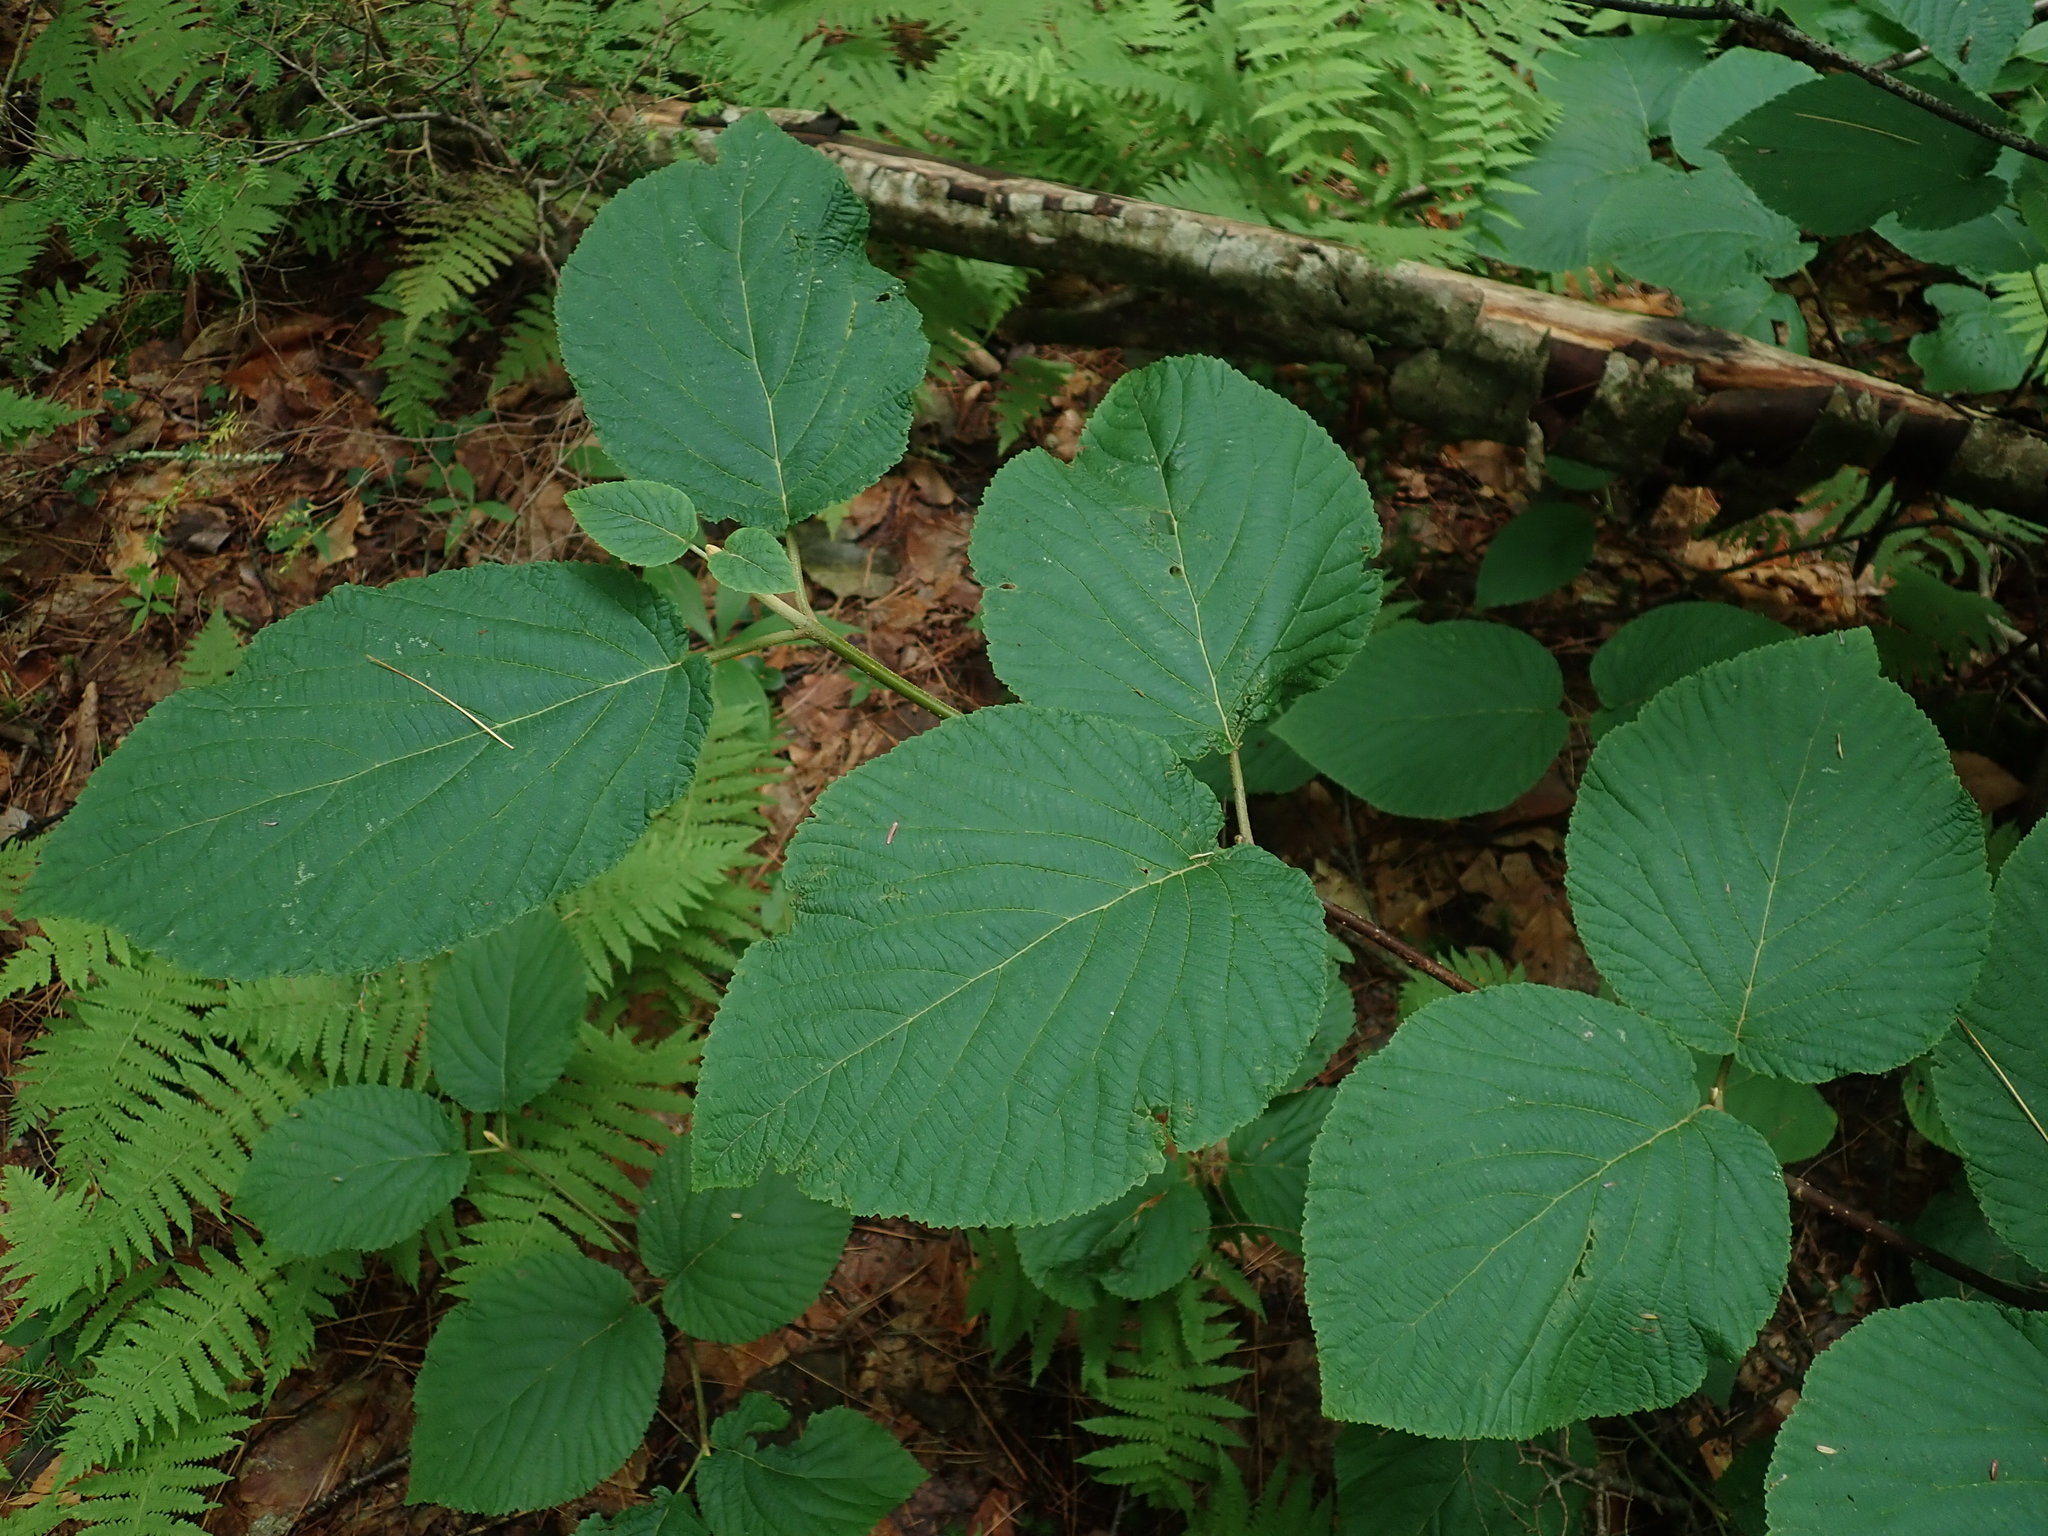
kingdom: Plantae
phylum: Tracheophyta
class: Magnoliopsida
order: Dipsacales
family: Viburnaceae
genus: Viburnum
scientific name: Viburnum lantanoides
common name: Hobblebush
